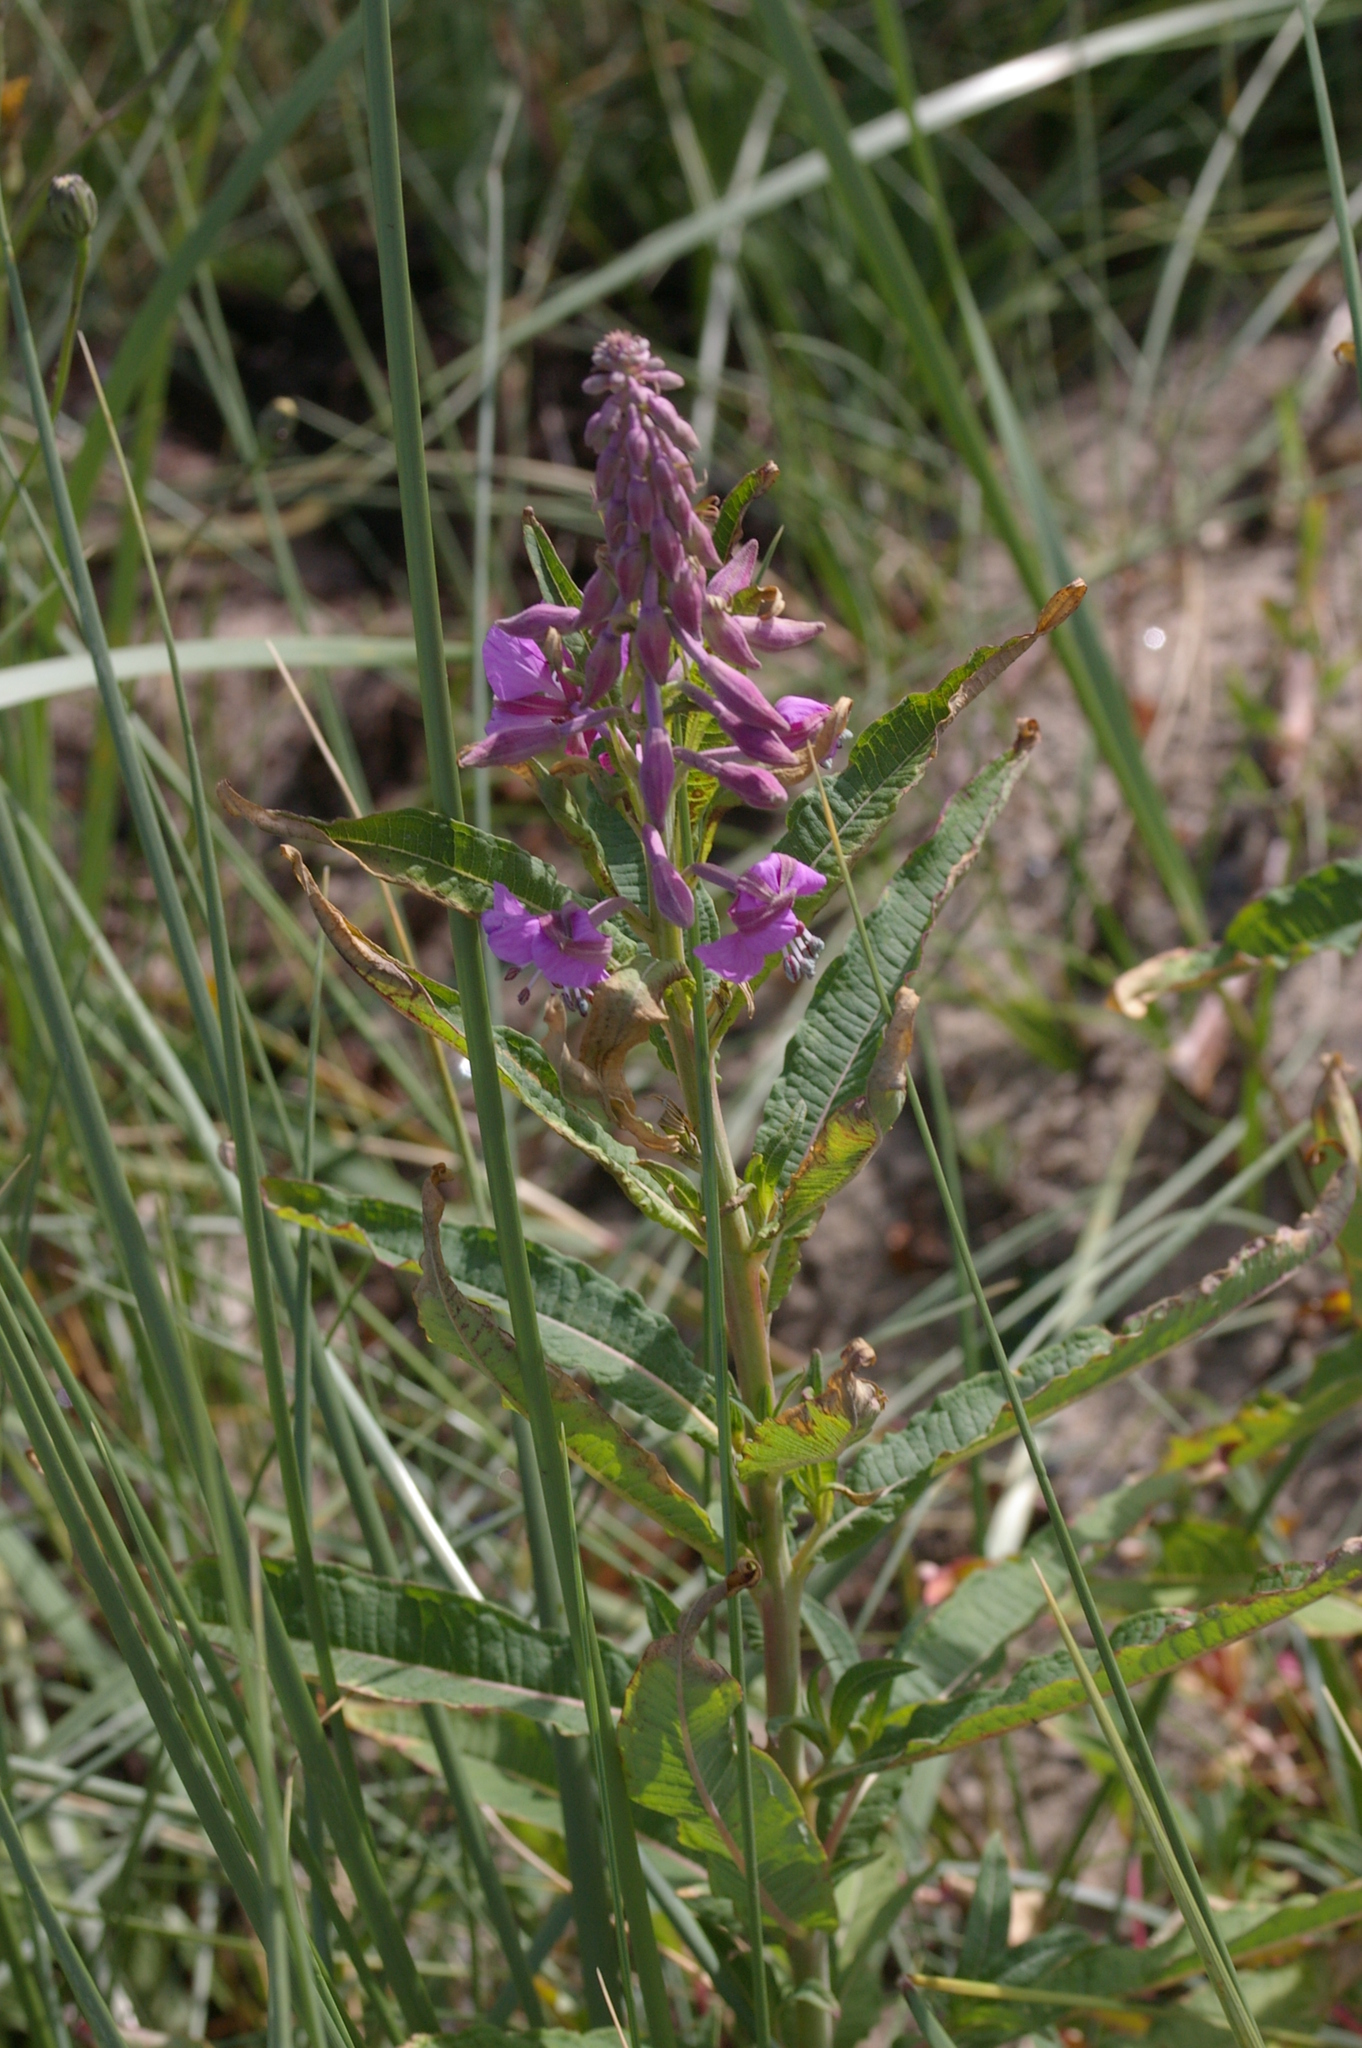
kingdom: Plantae
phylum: Tracheophyta
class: Magnoliopsida
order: Myrtales
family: Onagraceae
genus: Chamaenerion
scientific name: Chamaenerion angustifolium
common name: Fireweed
